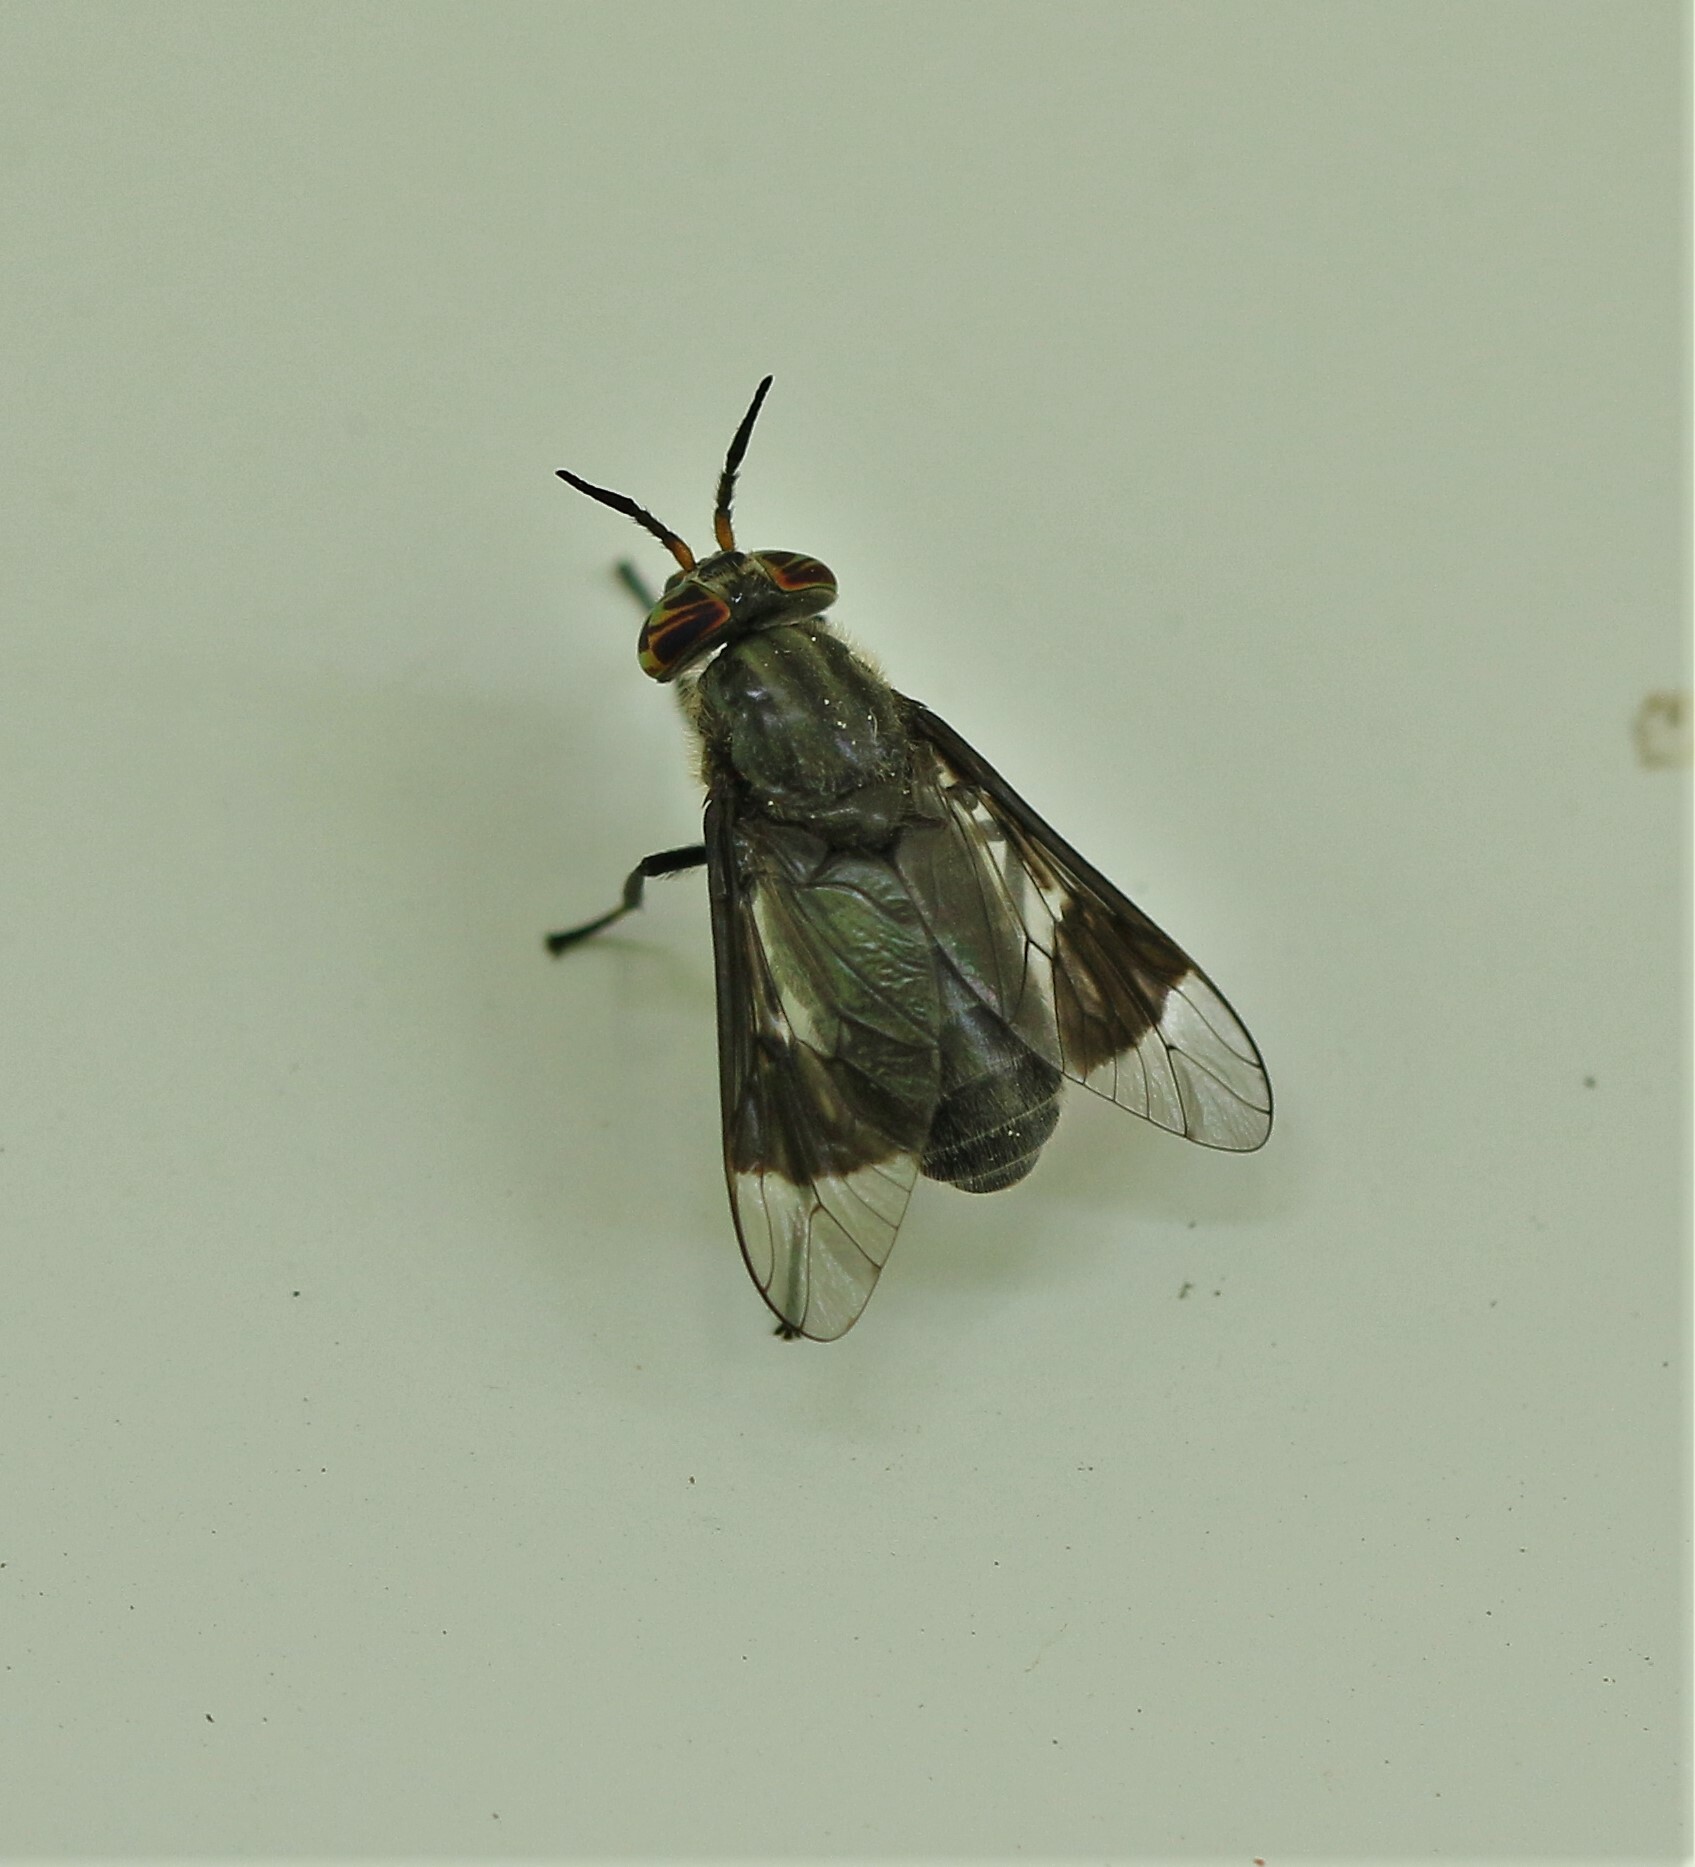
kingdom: Animalia
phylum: Arthropoda
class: Insecta
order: Diptera
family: Tabanidae
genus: Chrysops
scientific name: Chrysops niger
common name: Black deer fly
